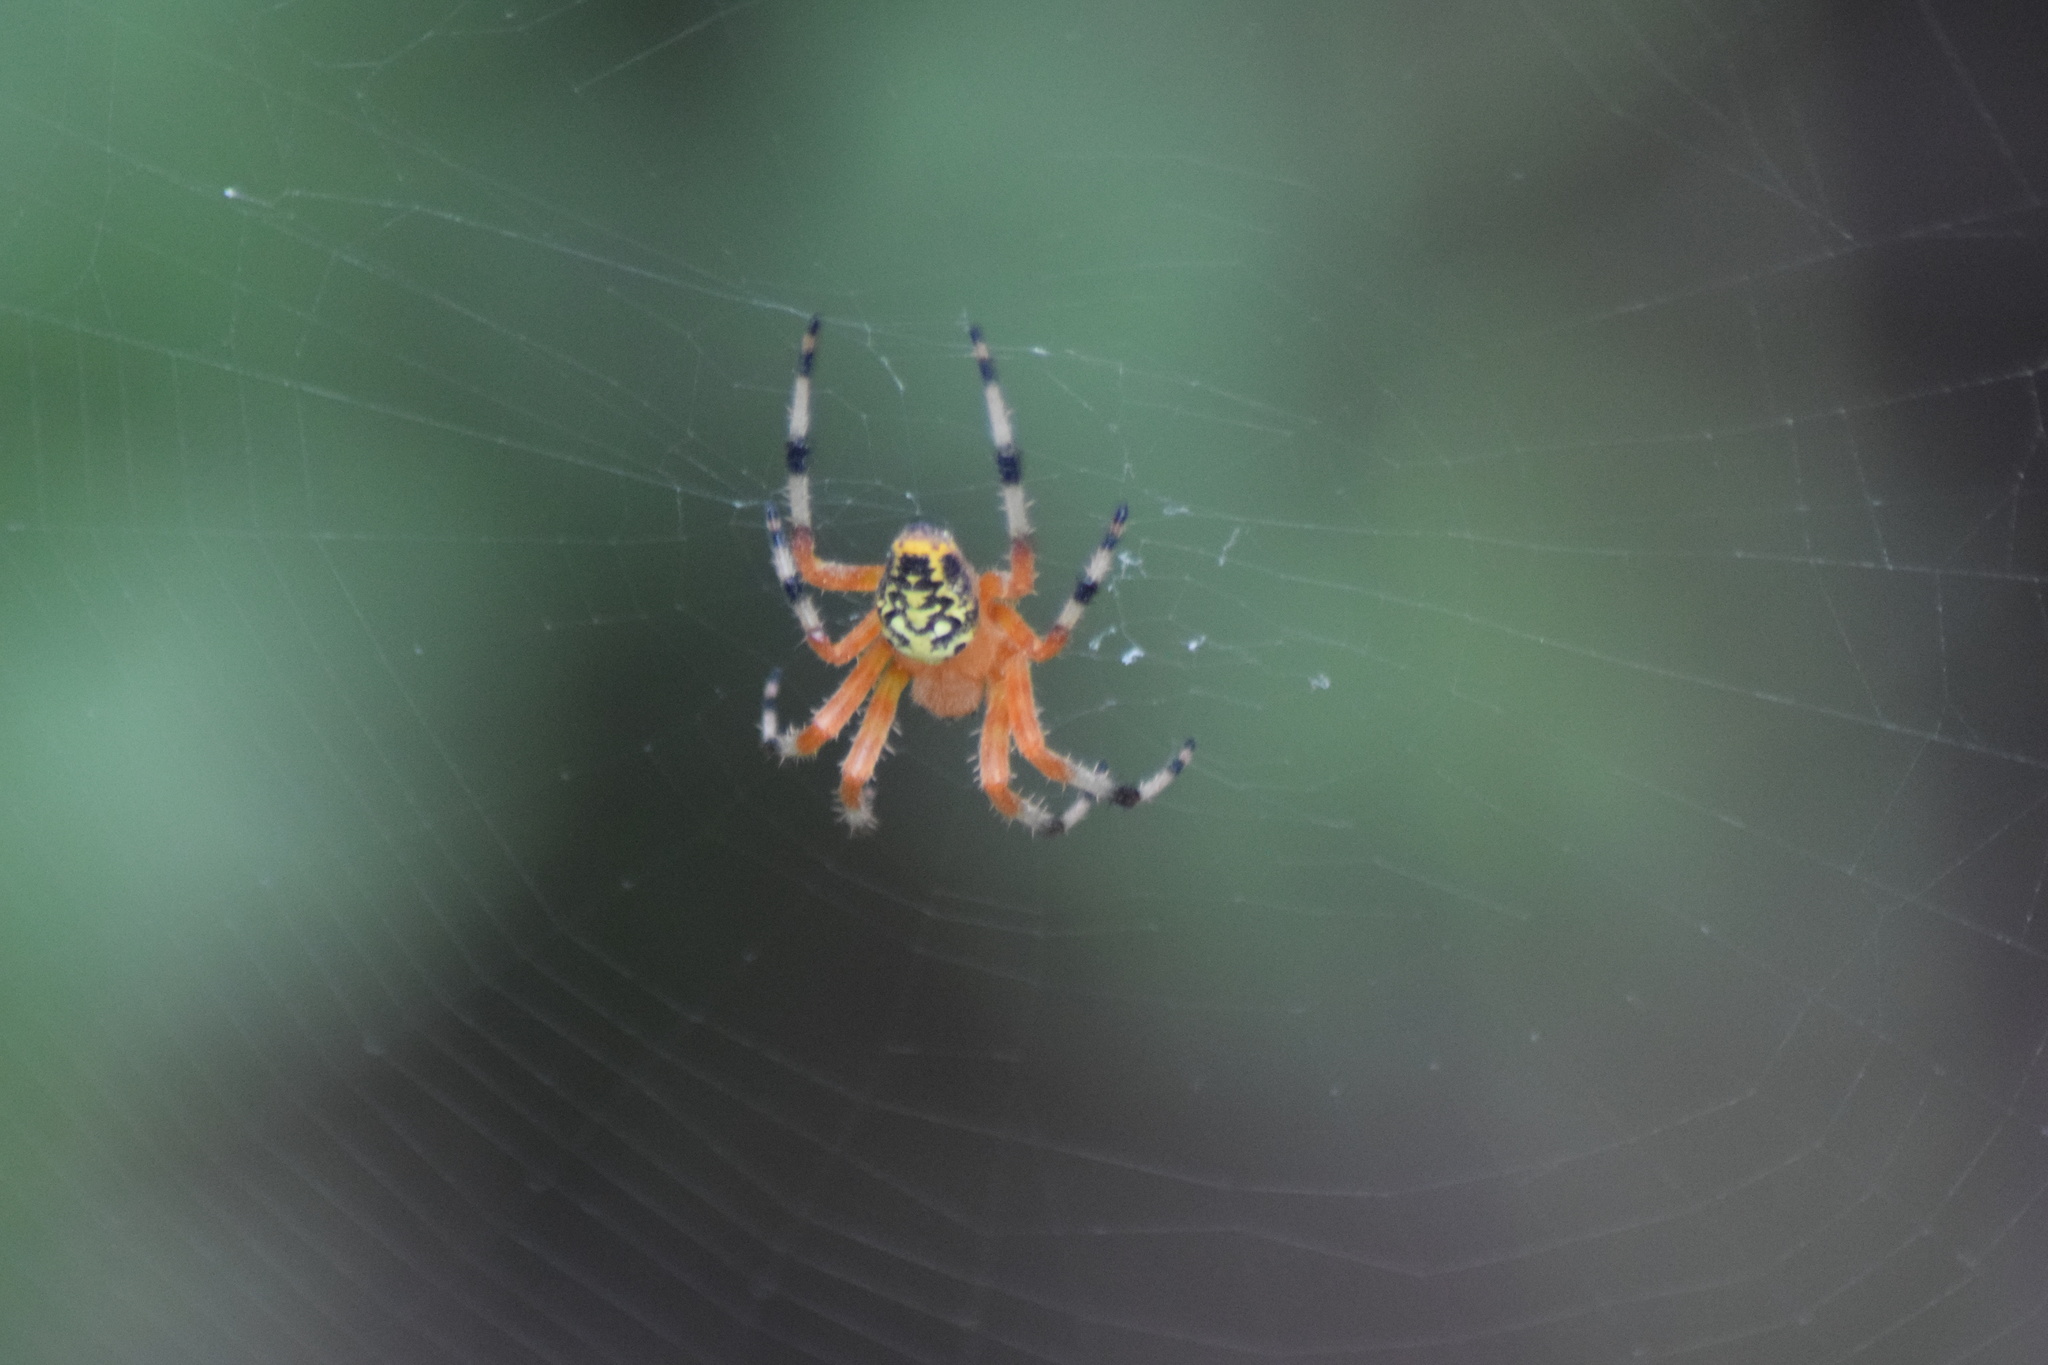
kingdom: Animalia
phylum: Arthropoda
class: Arachnida
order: Araneae
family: Araneidae
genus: Araneus
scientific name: Araneus marmoreus
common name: Marbled orbweaver
